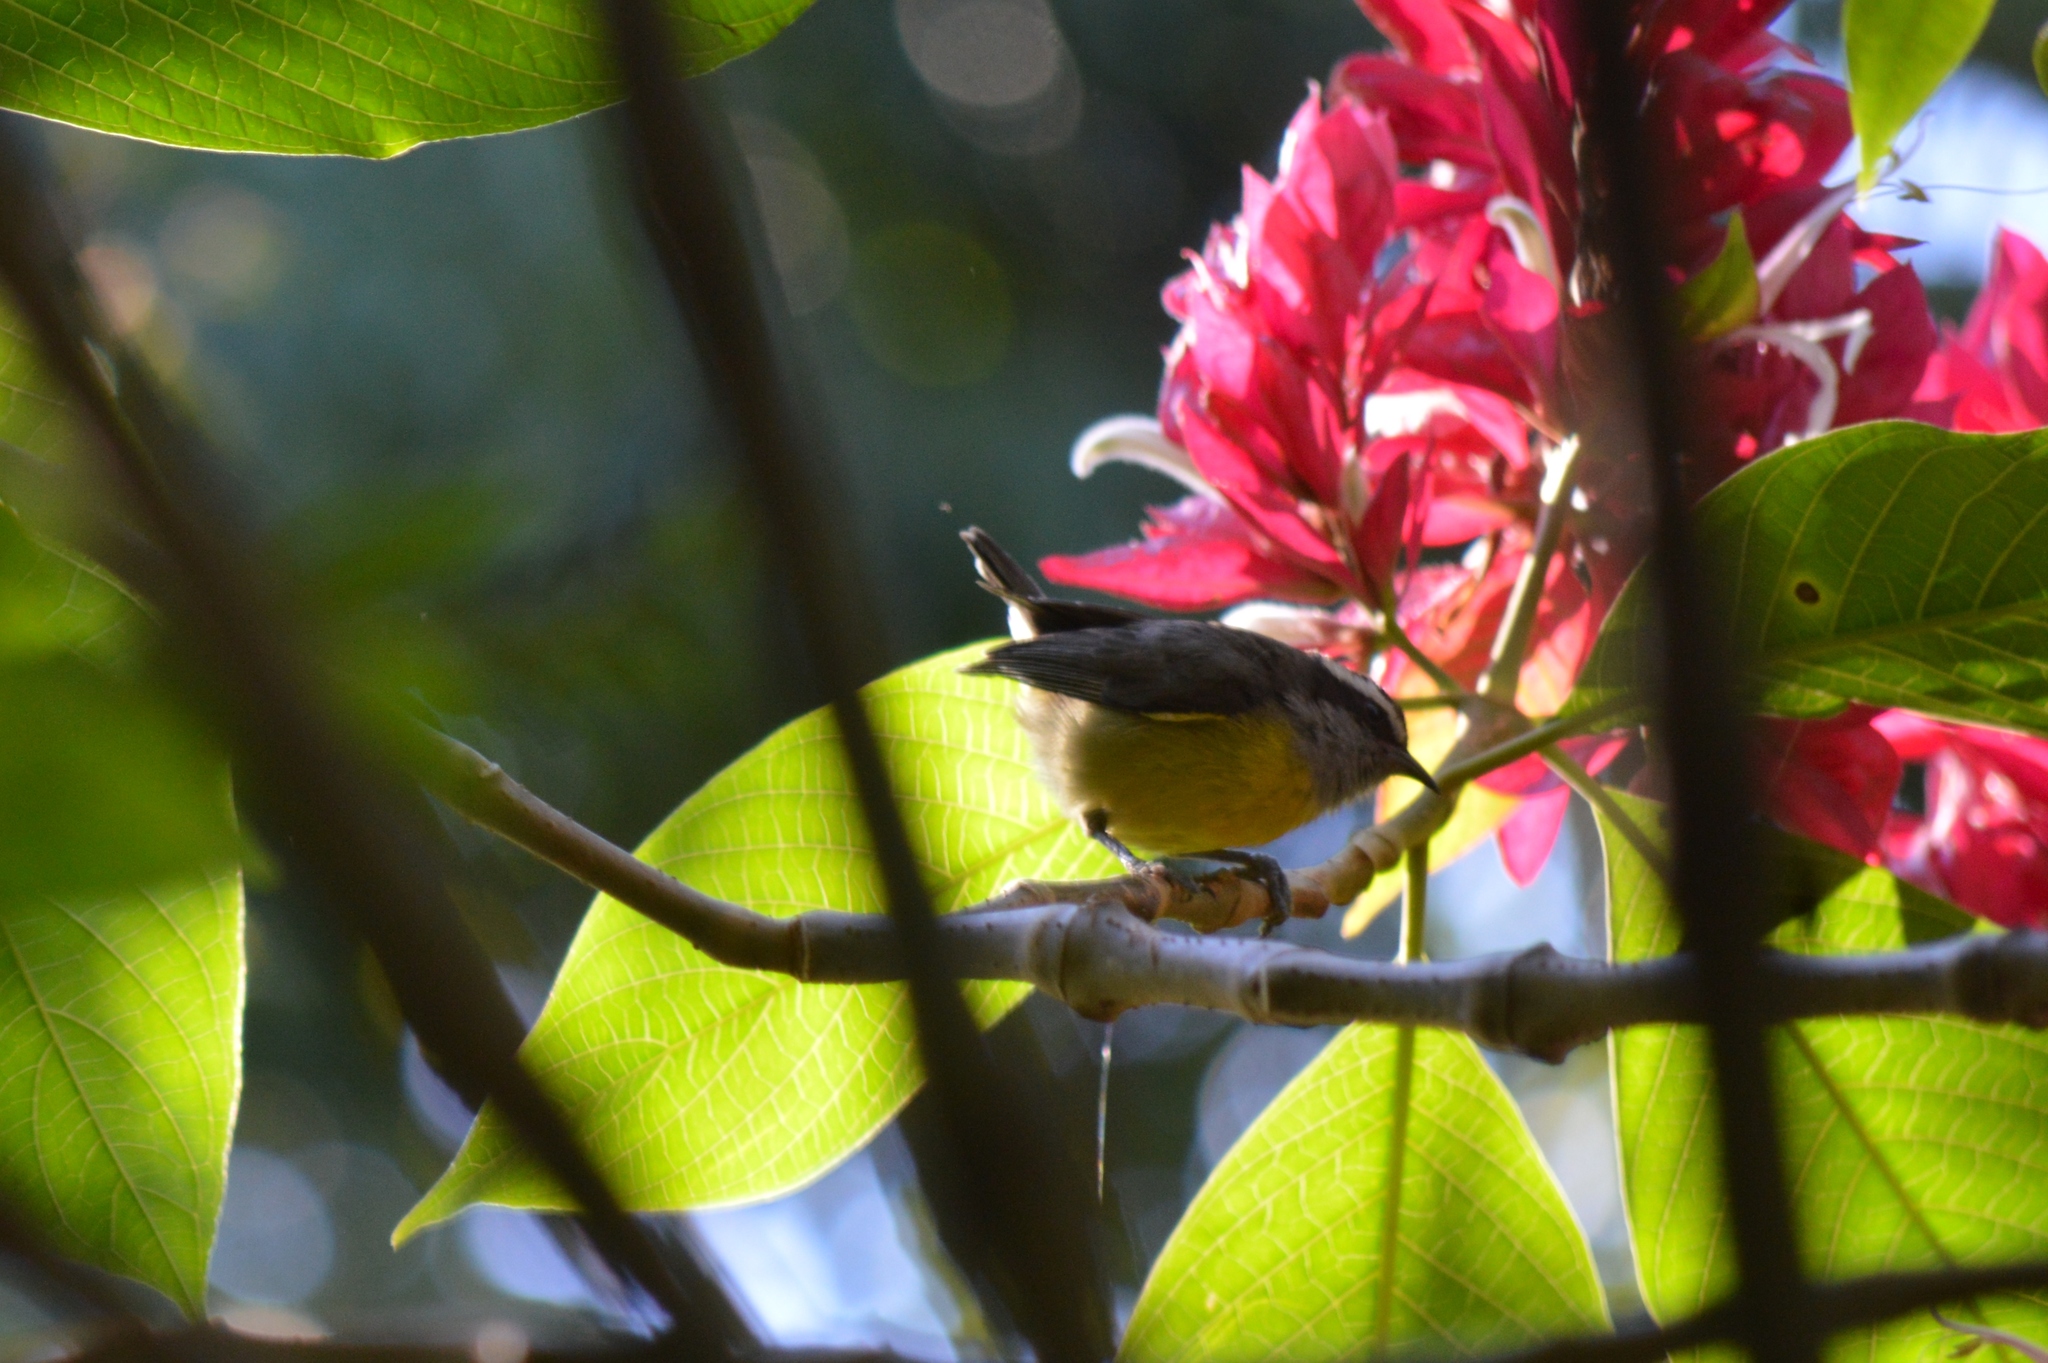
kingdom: Animalia
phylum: Chordata
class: Aves
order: Passeriformes
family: Thraupidae
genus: Coereba
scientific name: Coereba flaveola
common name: Bananaquit
